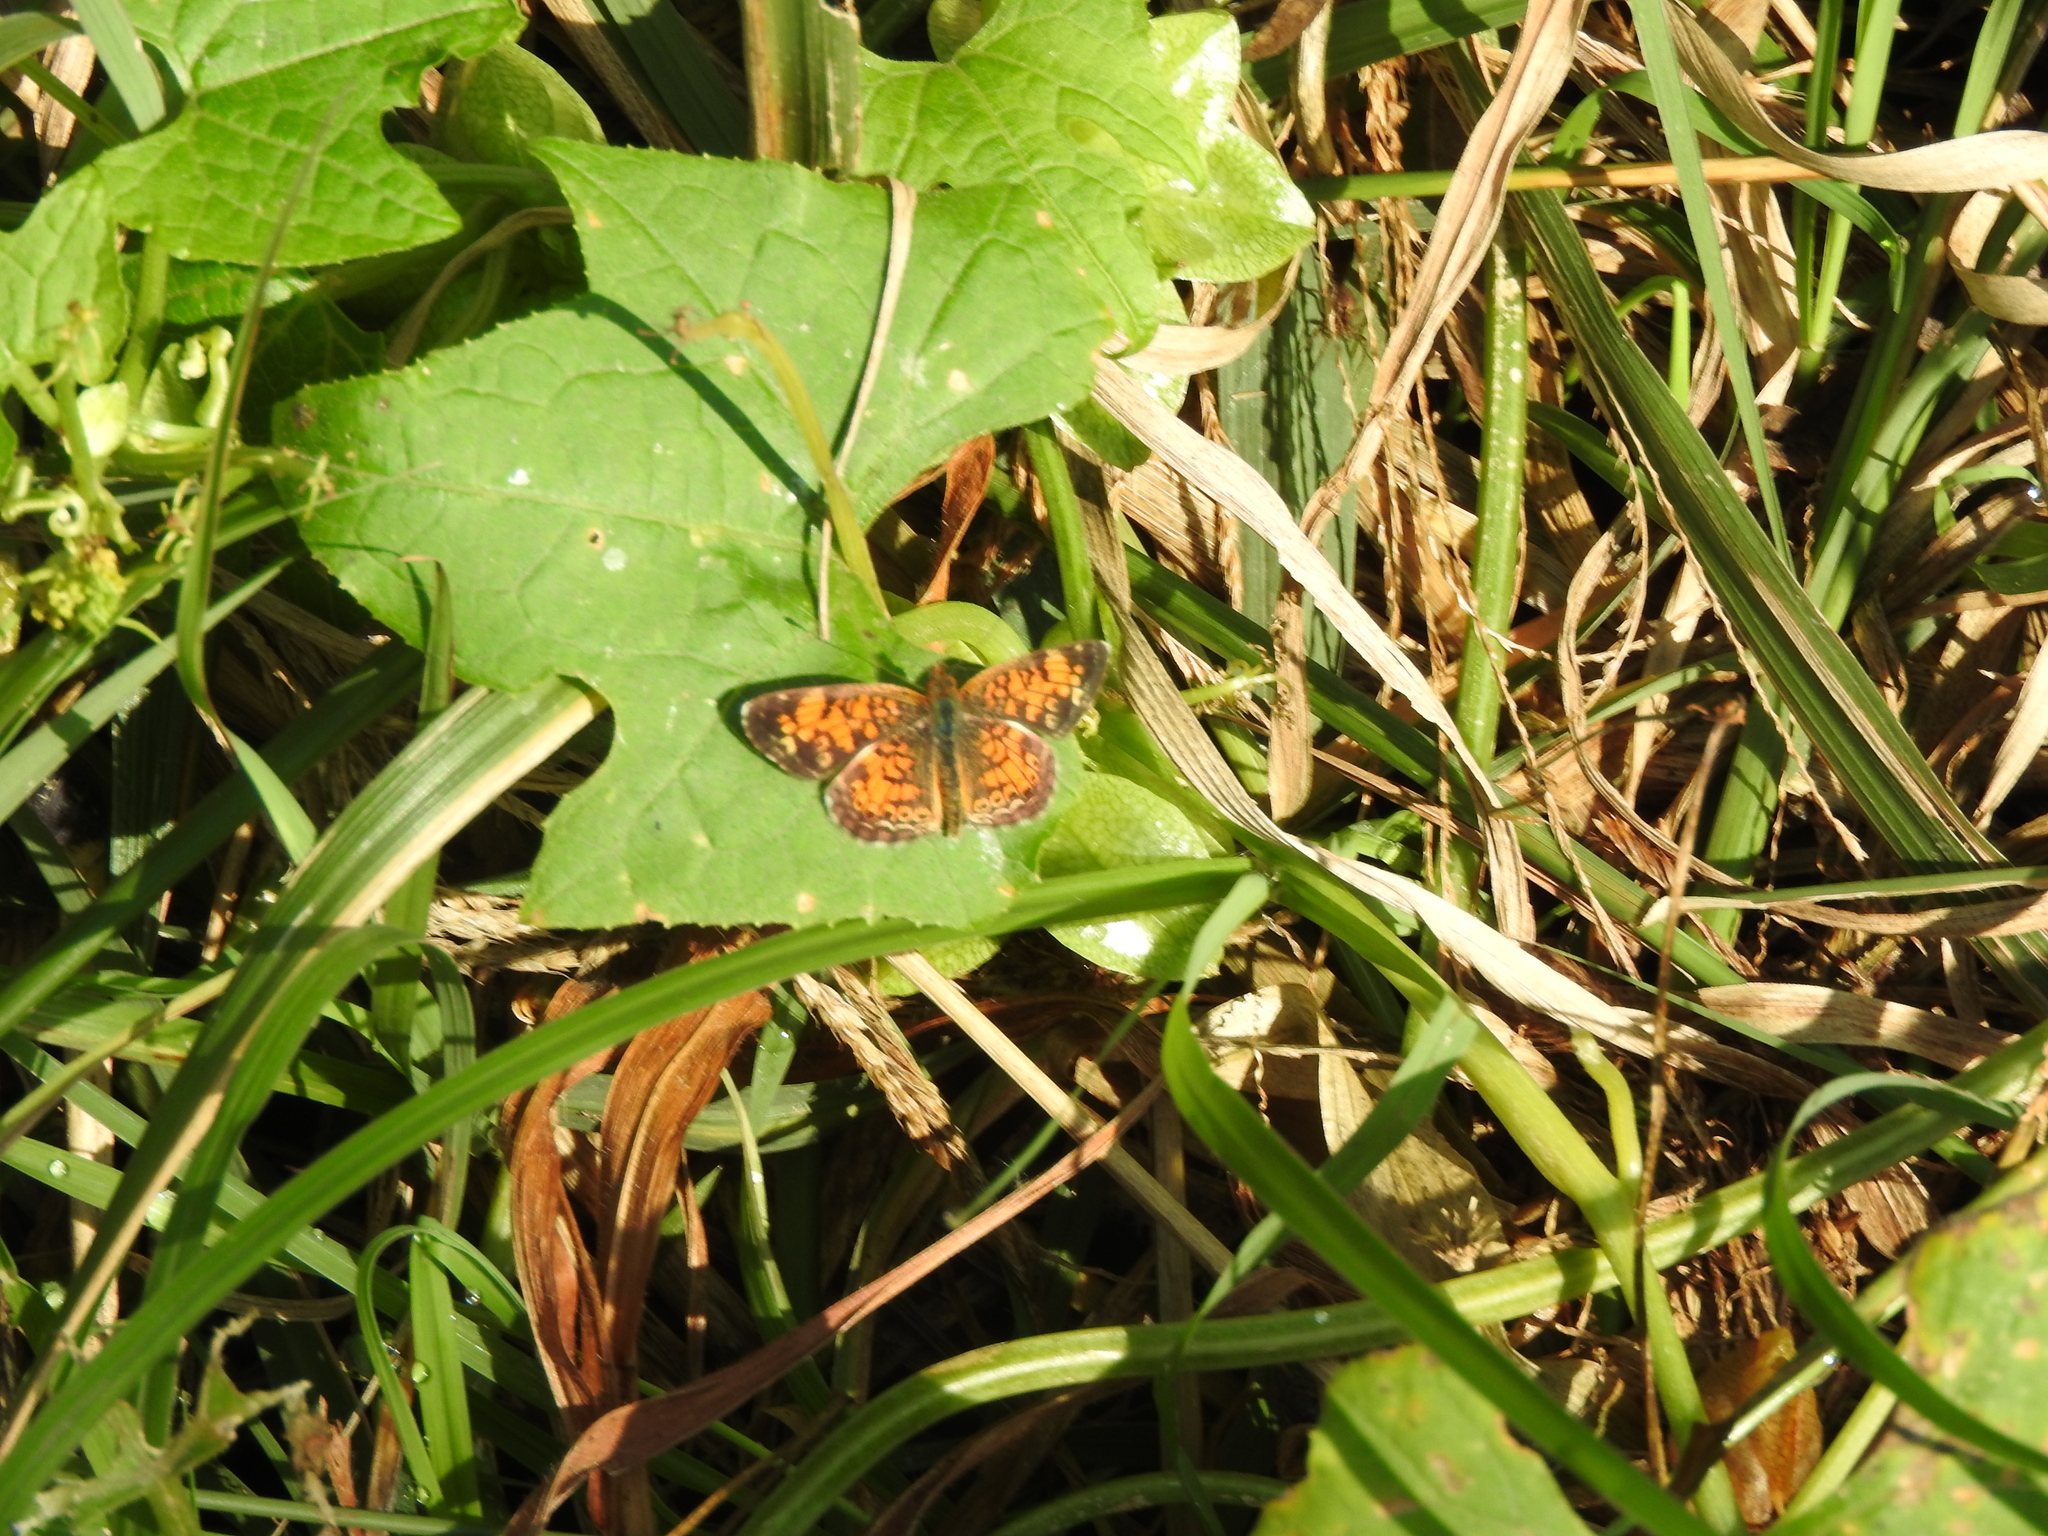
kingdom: Animalia
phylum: Arthropoda
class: Insecta
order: Lepidoptera
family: Nymphalidae
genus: Phyciodes
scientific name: Phyciodes tharos
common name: Pearl crescent
